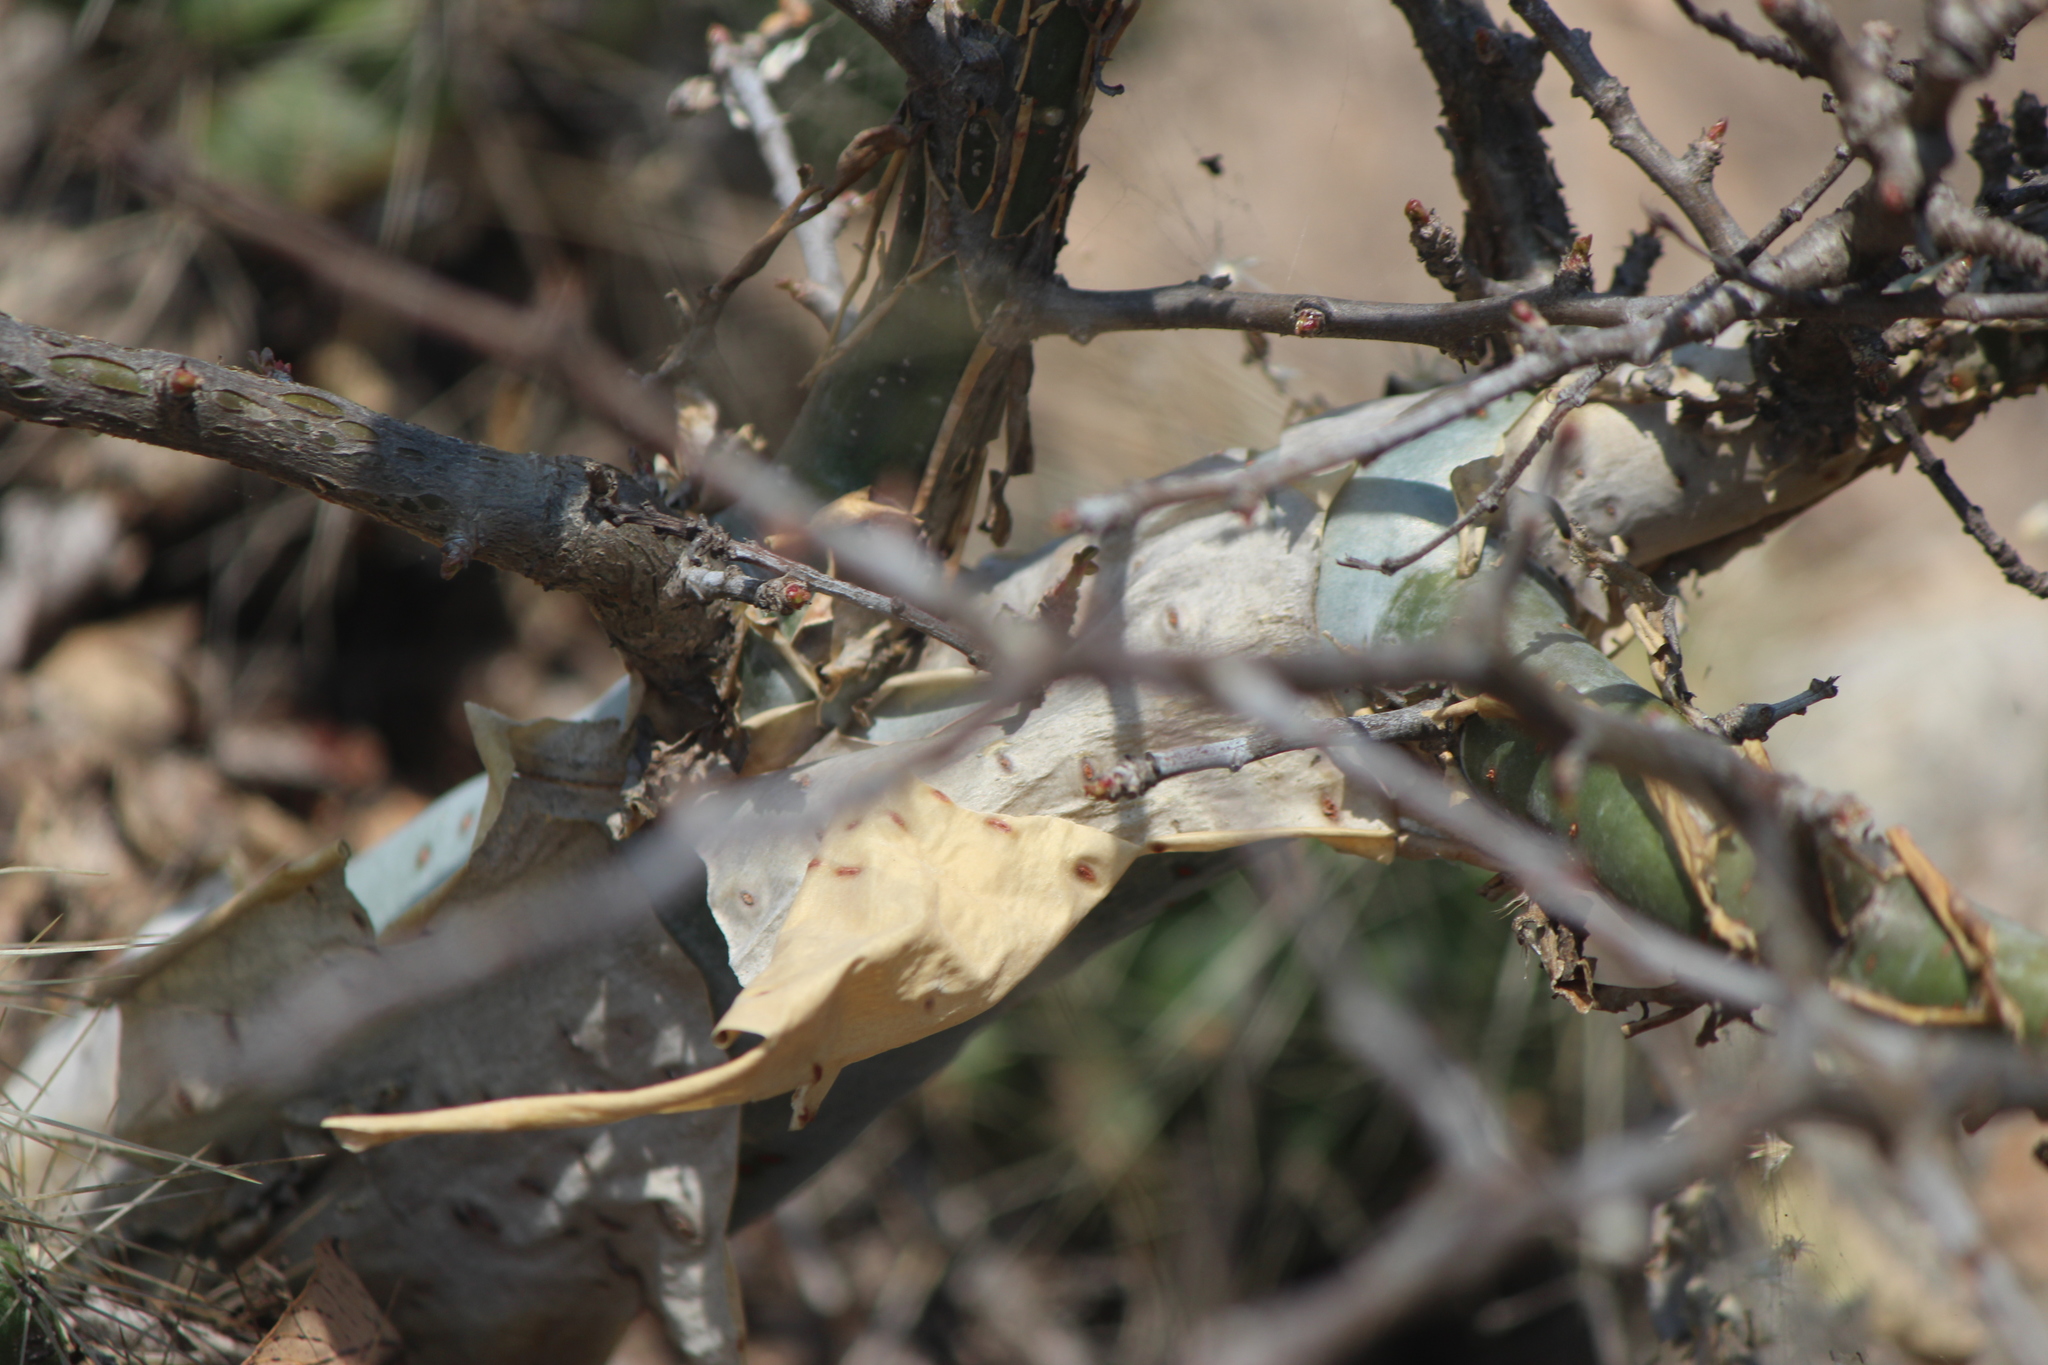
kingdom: Plantae
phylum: Tracheophyta
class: Magnoliopsida
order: Sapindales
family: Burseraceae
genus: Bursera
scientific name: Bursera fagaroides
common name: Elephant tree
